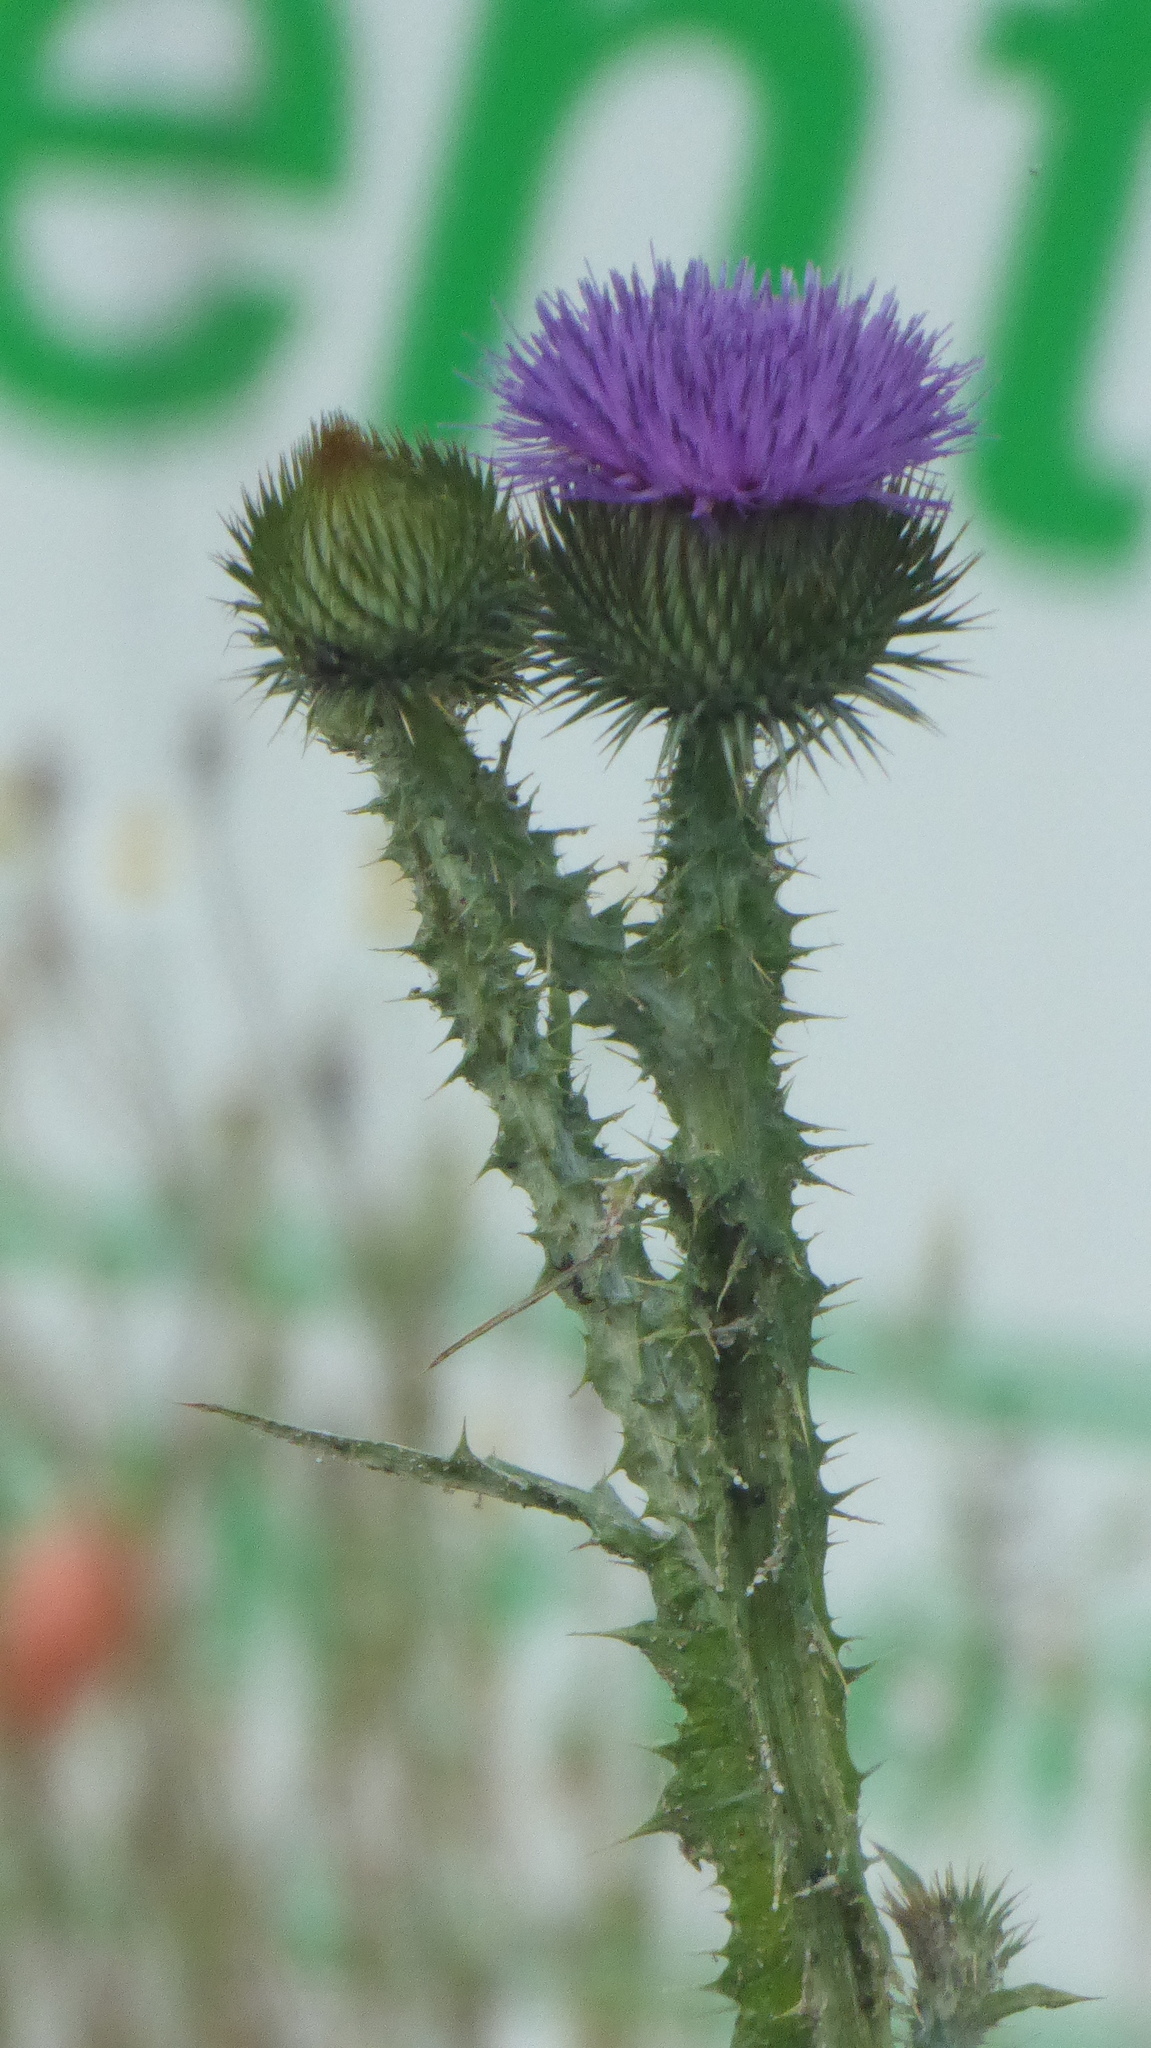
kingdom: Plantae
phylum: Tracheophyta
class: Magnoliopsida
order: Asterales
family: Asteraceae
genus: Onopordum
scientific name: Onopordum acanthium
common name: Scotch thistle
